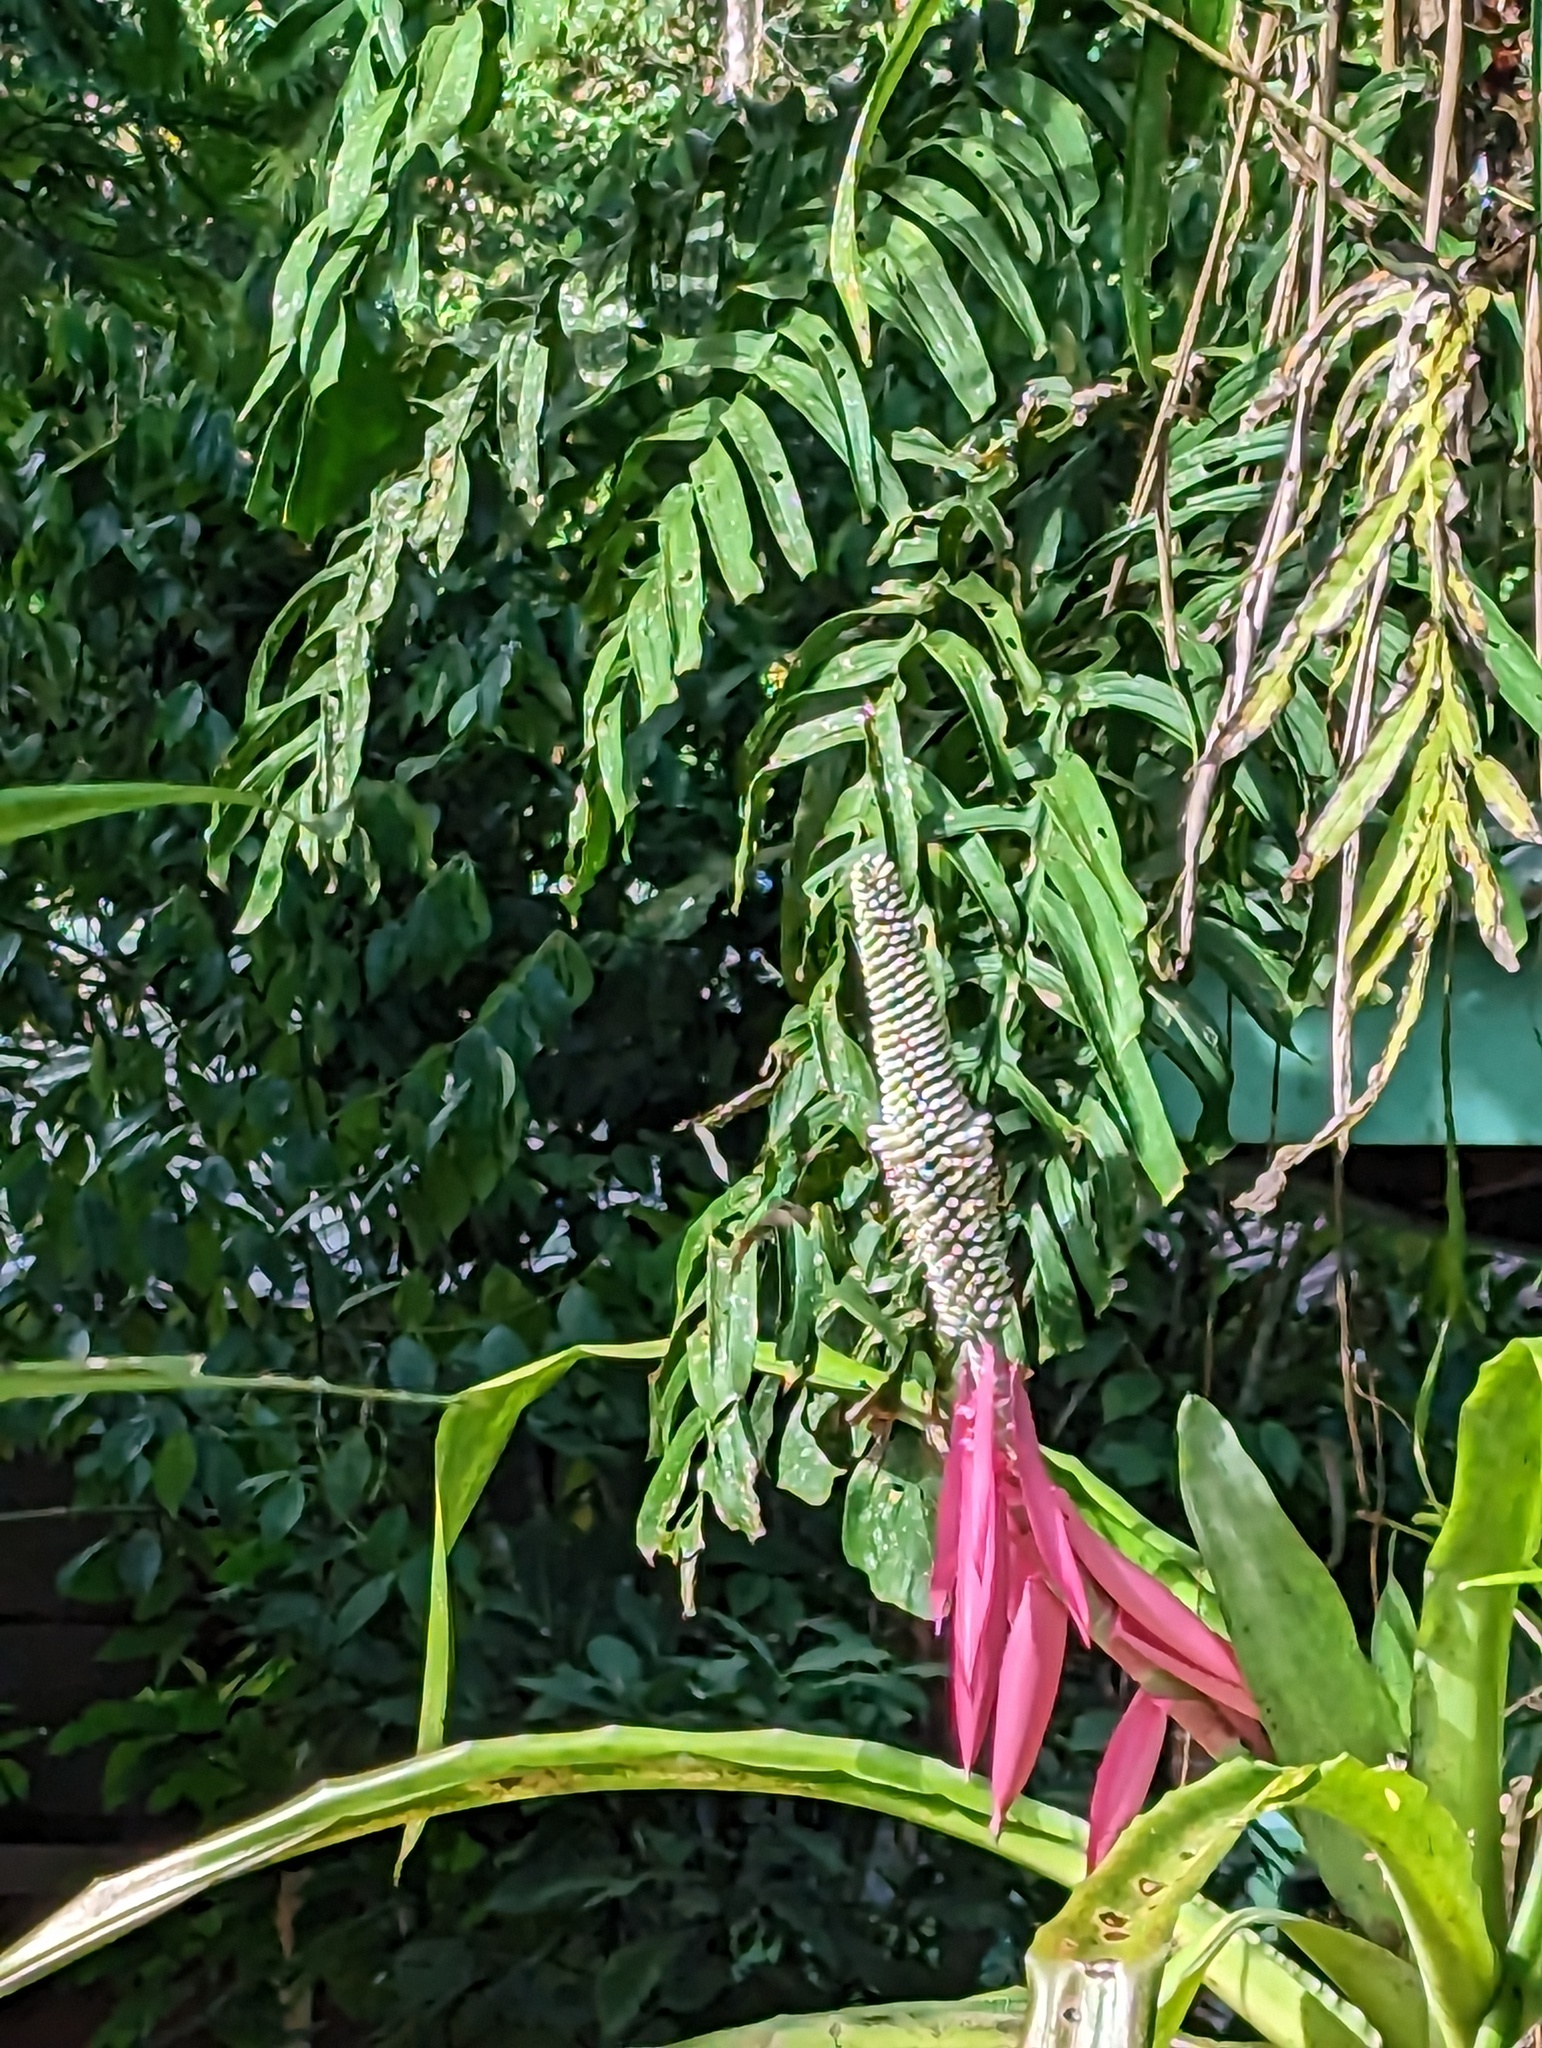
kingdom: Plantae
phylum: Tracheophyta
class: Liliopsida
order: Poales
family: Bromeliaceae
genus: Aechmea
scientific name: Aechmea mariae-reginae
